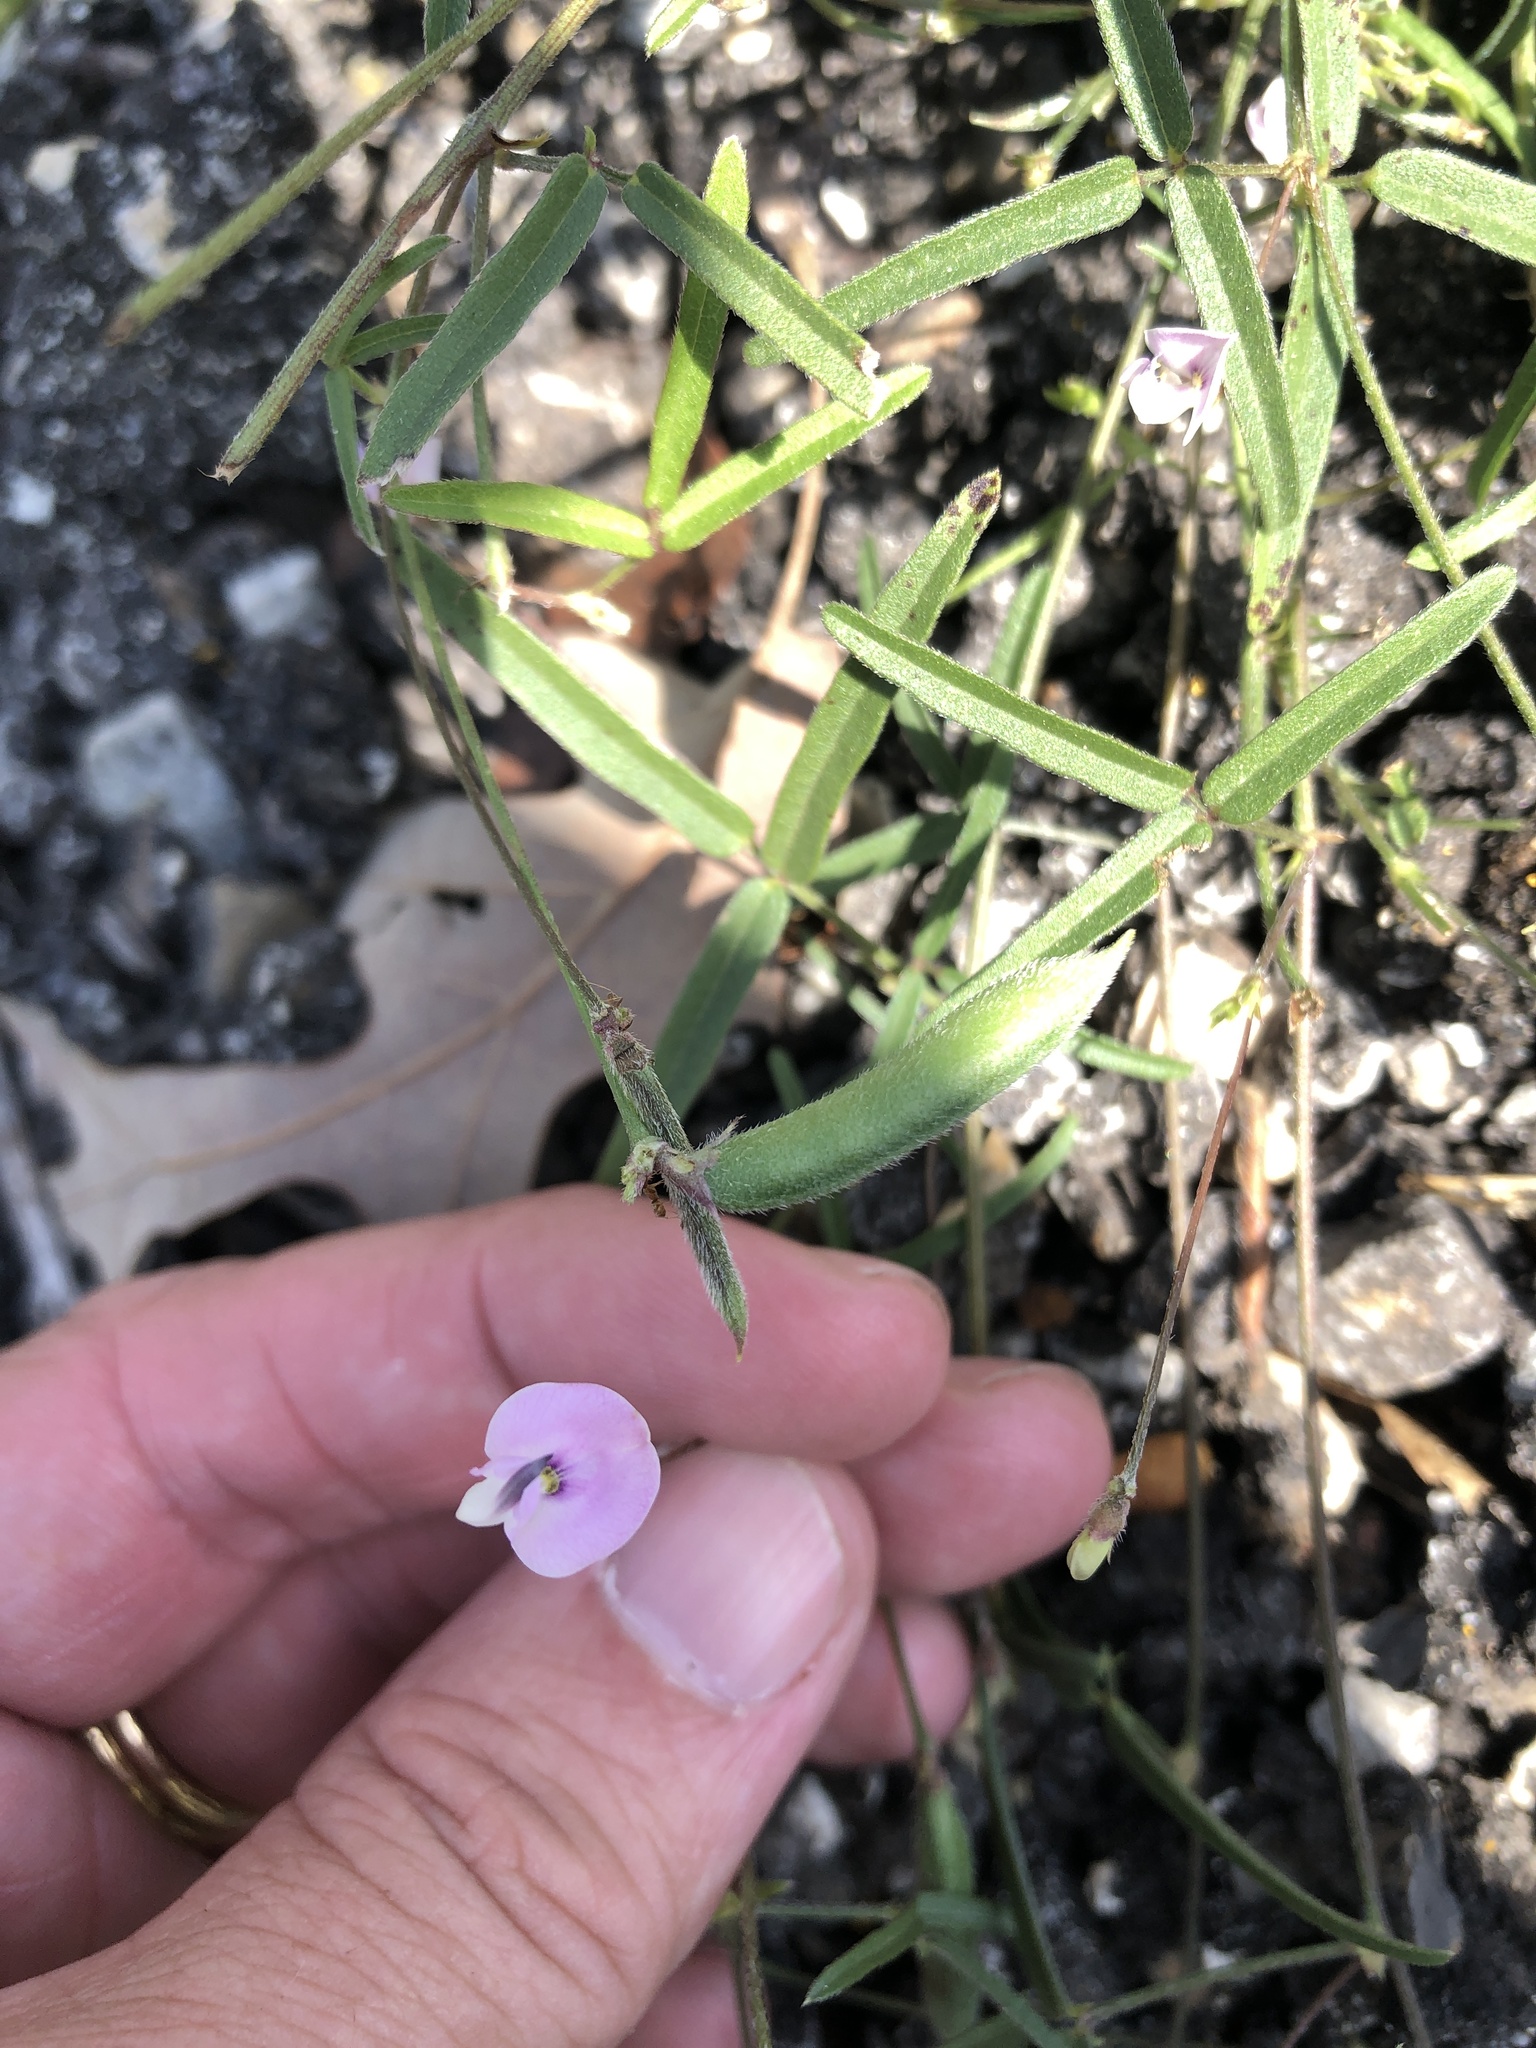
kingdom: Plantae
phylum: Tracheophyta
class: Magnoliopsida
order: Fabales
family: Fabaceae
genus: Strophostyles
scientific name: Strophostyles leiosperma
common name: Smooth-seed wild bean
